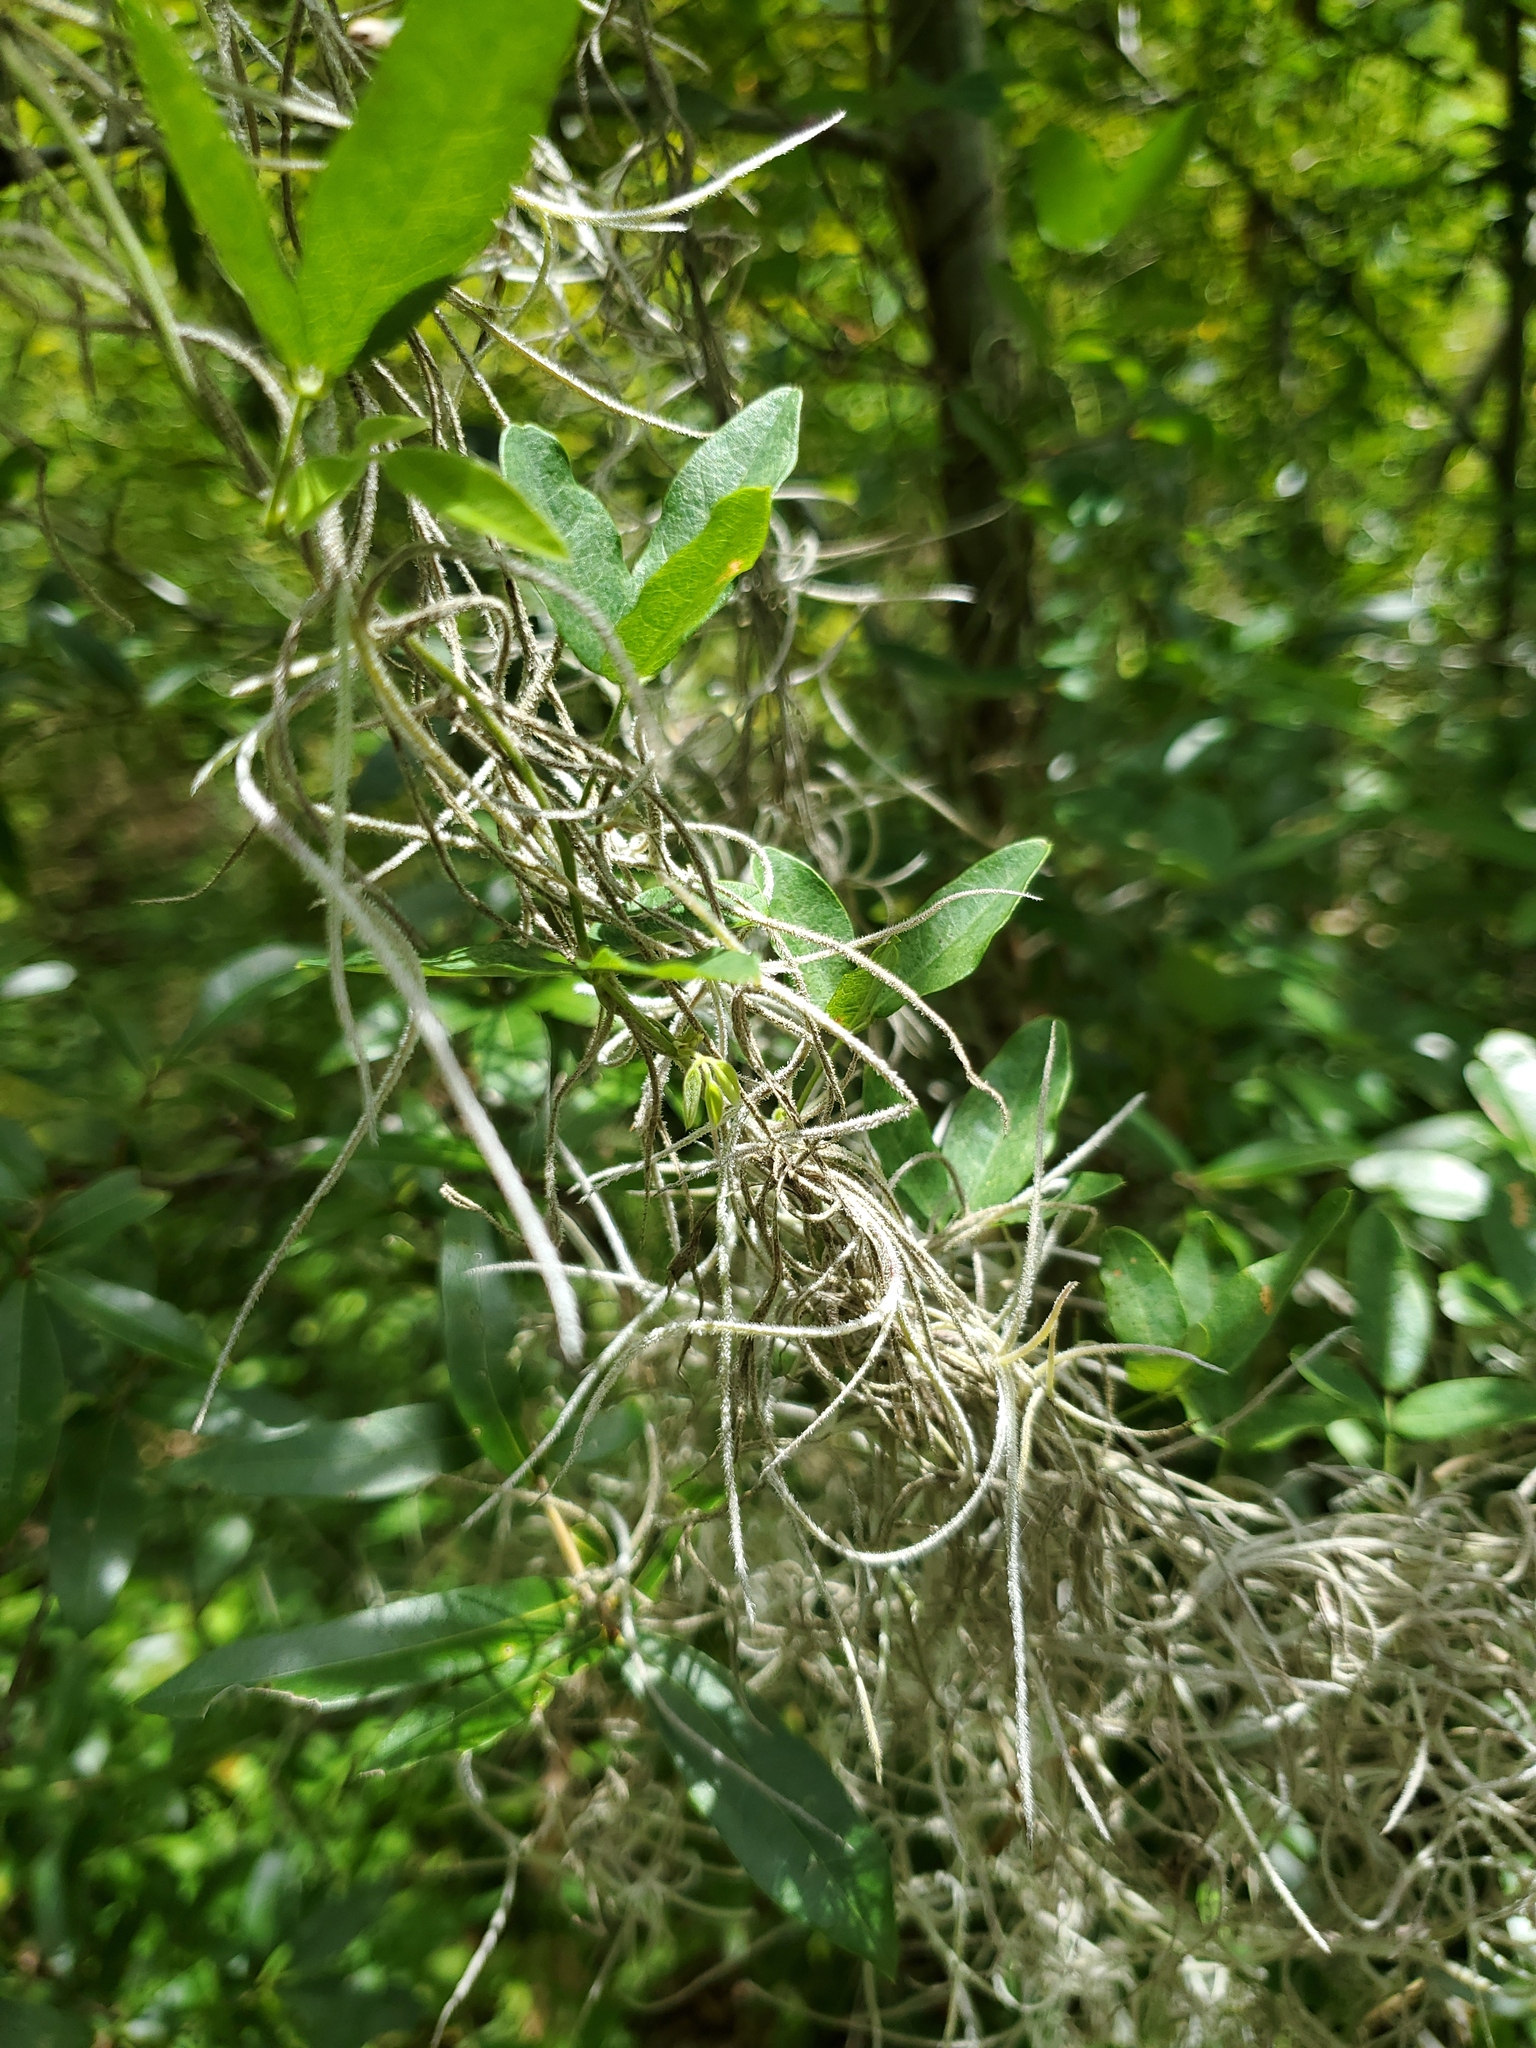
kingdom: Plantae
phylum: Tracheophyta
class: Liliopsida
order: Poales
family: Bromeliaceae
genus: Tillandsia
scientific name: Tillandsia usneoides
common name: Spanish moss
